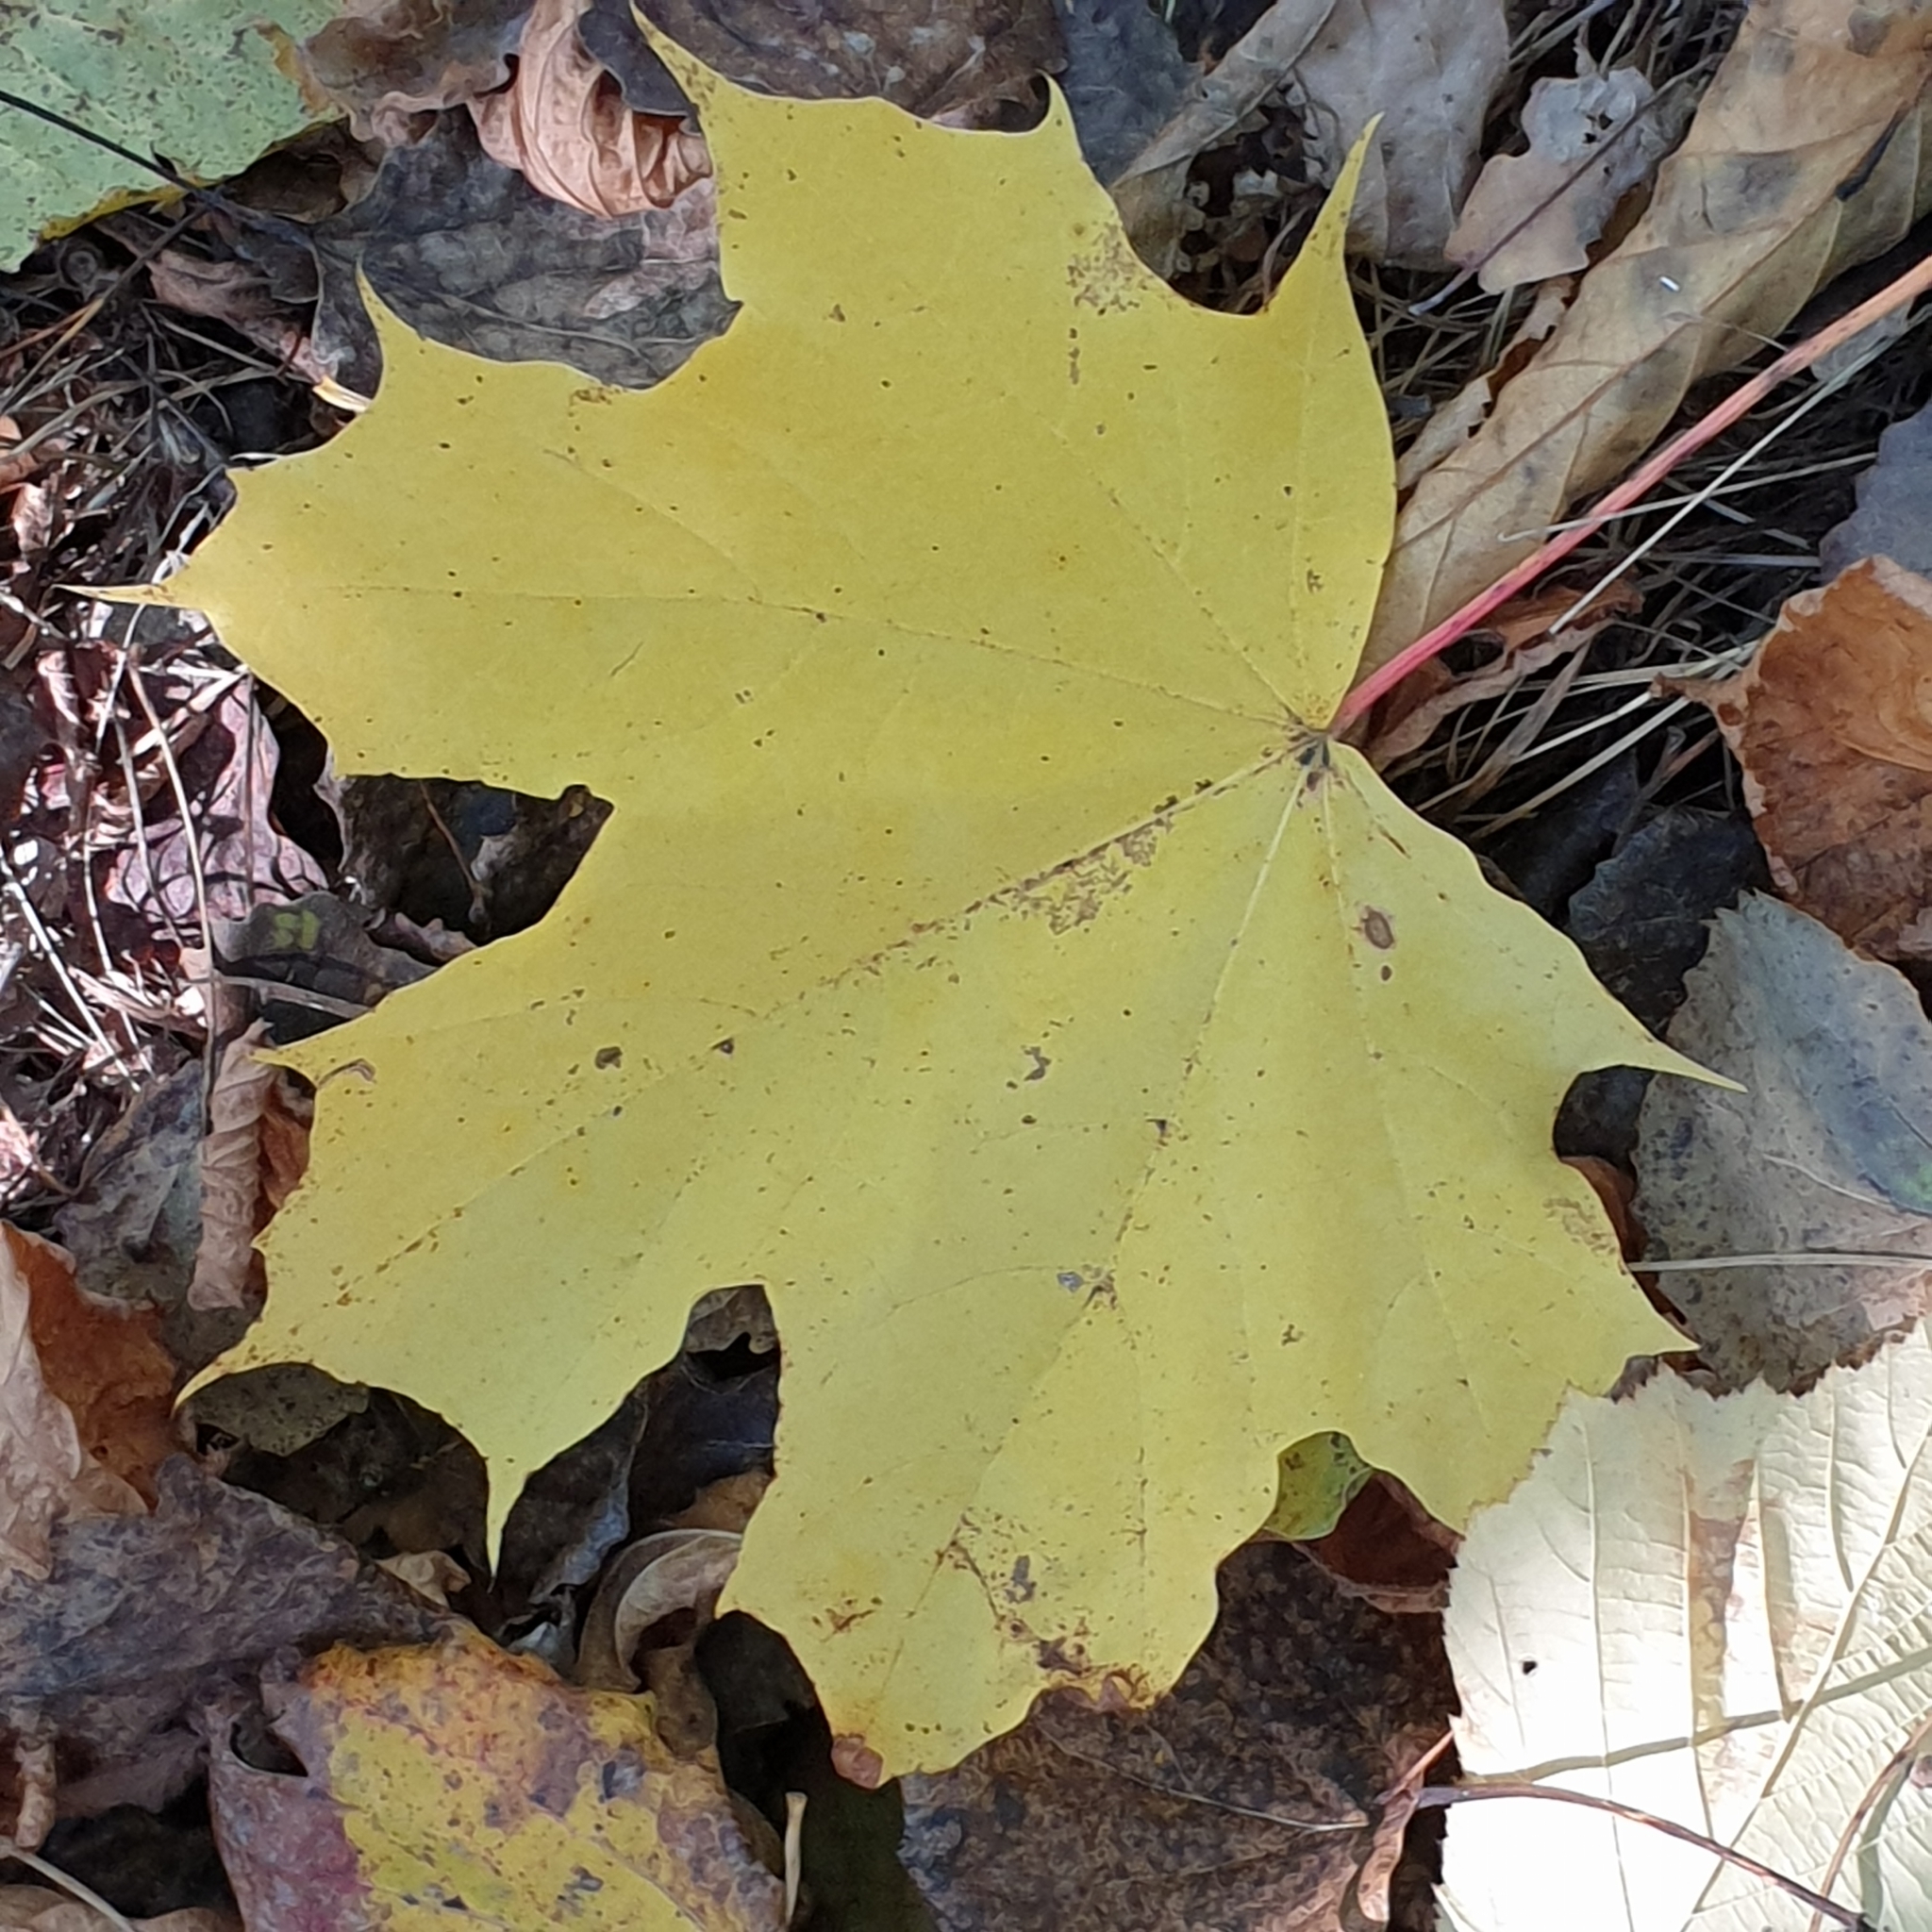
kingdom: Plantae
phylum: Tracheophyta
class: Magnoliopsida
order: Sapindales
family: Sapindaceae
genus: Acer
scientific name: Acer platanoides
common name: Norway maple
